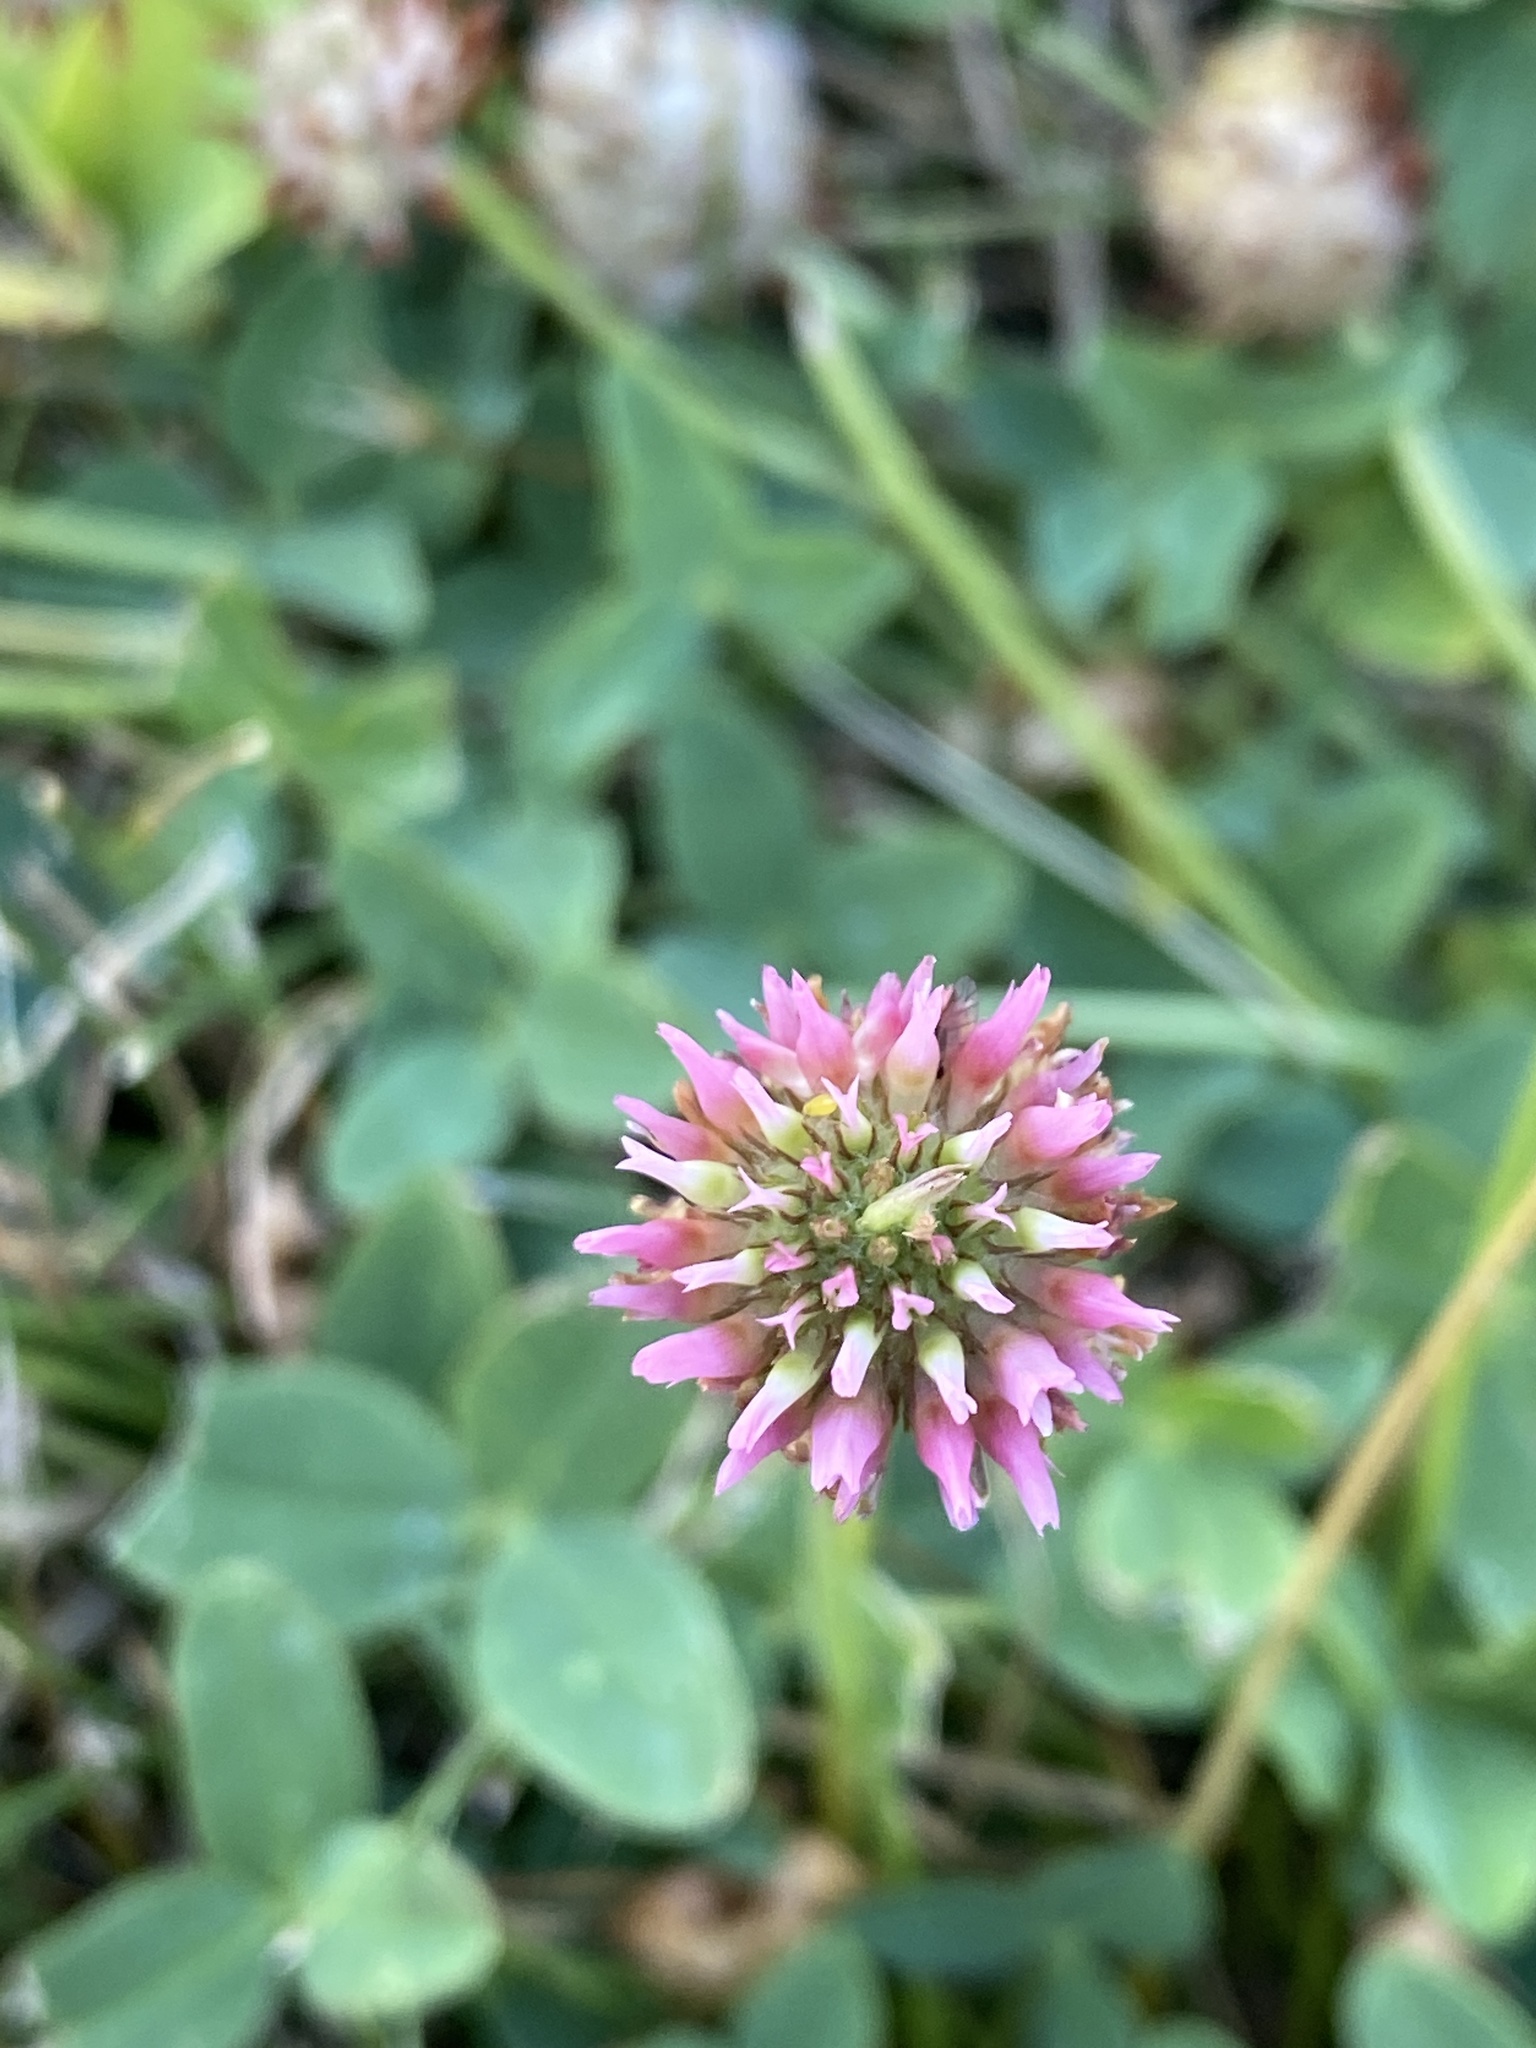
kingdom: Plantae
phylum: Tracheophyta
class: Magnoliopsida
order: Fabales
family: Fabaceae
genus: Trifolium
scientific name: Trifolium fragiferum
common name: Strawberry clover
